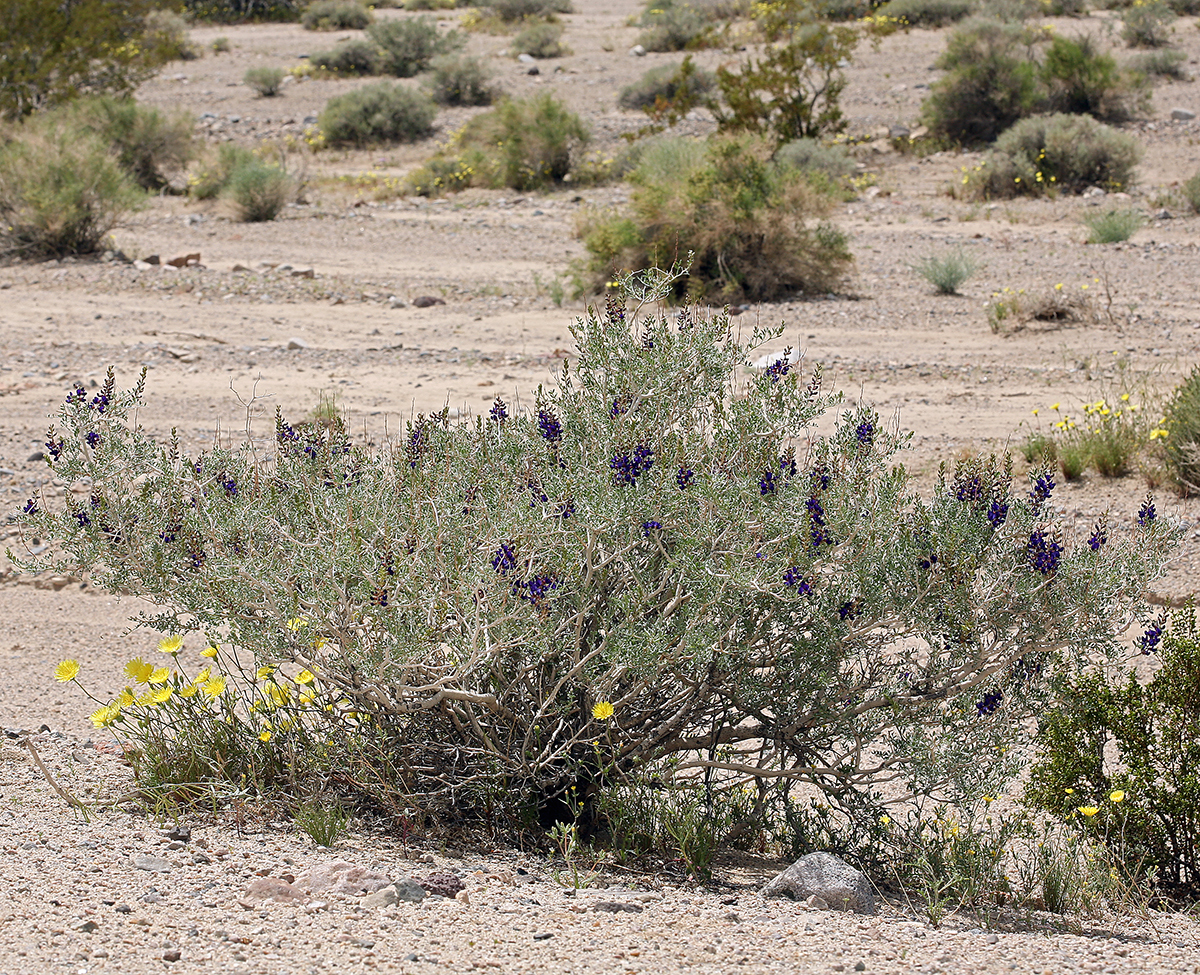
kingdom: Plantae
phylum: Tracheophyta
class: Magnoliopsida
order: Fabales
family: Fabaceae
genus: Psorothamnus
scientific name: Psorothamnus arborescens
